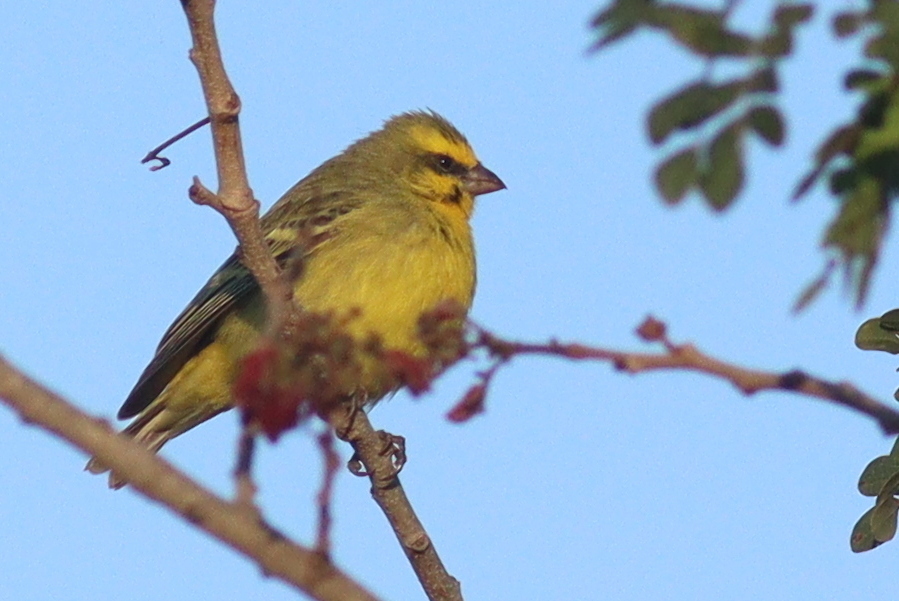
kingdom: Animalia
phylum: Chordata
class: Aves
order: Passeriformes
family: Fringillidae
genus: Crithagra
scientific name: Crithagra mozambica
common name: Yellow-fronted canary
